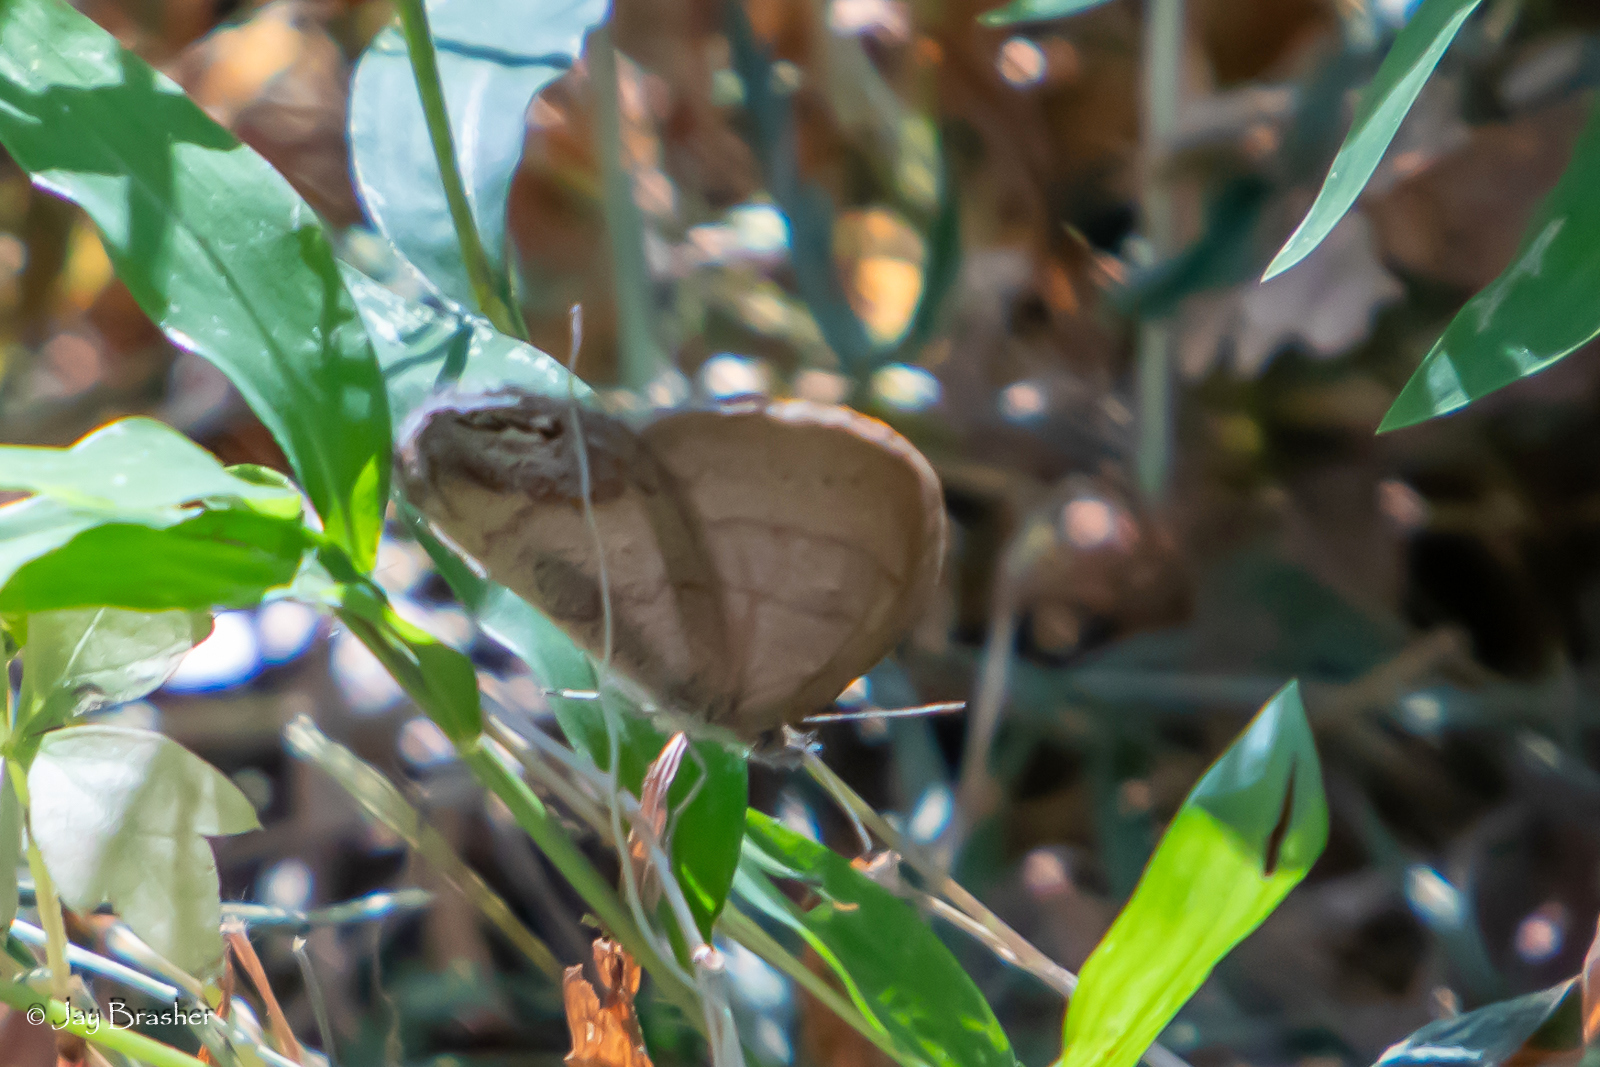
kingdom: Animalia
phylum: Arthropoda
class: Insecta
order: Lepidoptera
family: Nymphalidae
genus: Euptychia
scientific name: Euptychia cornelius
